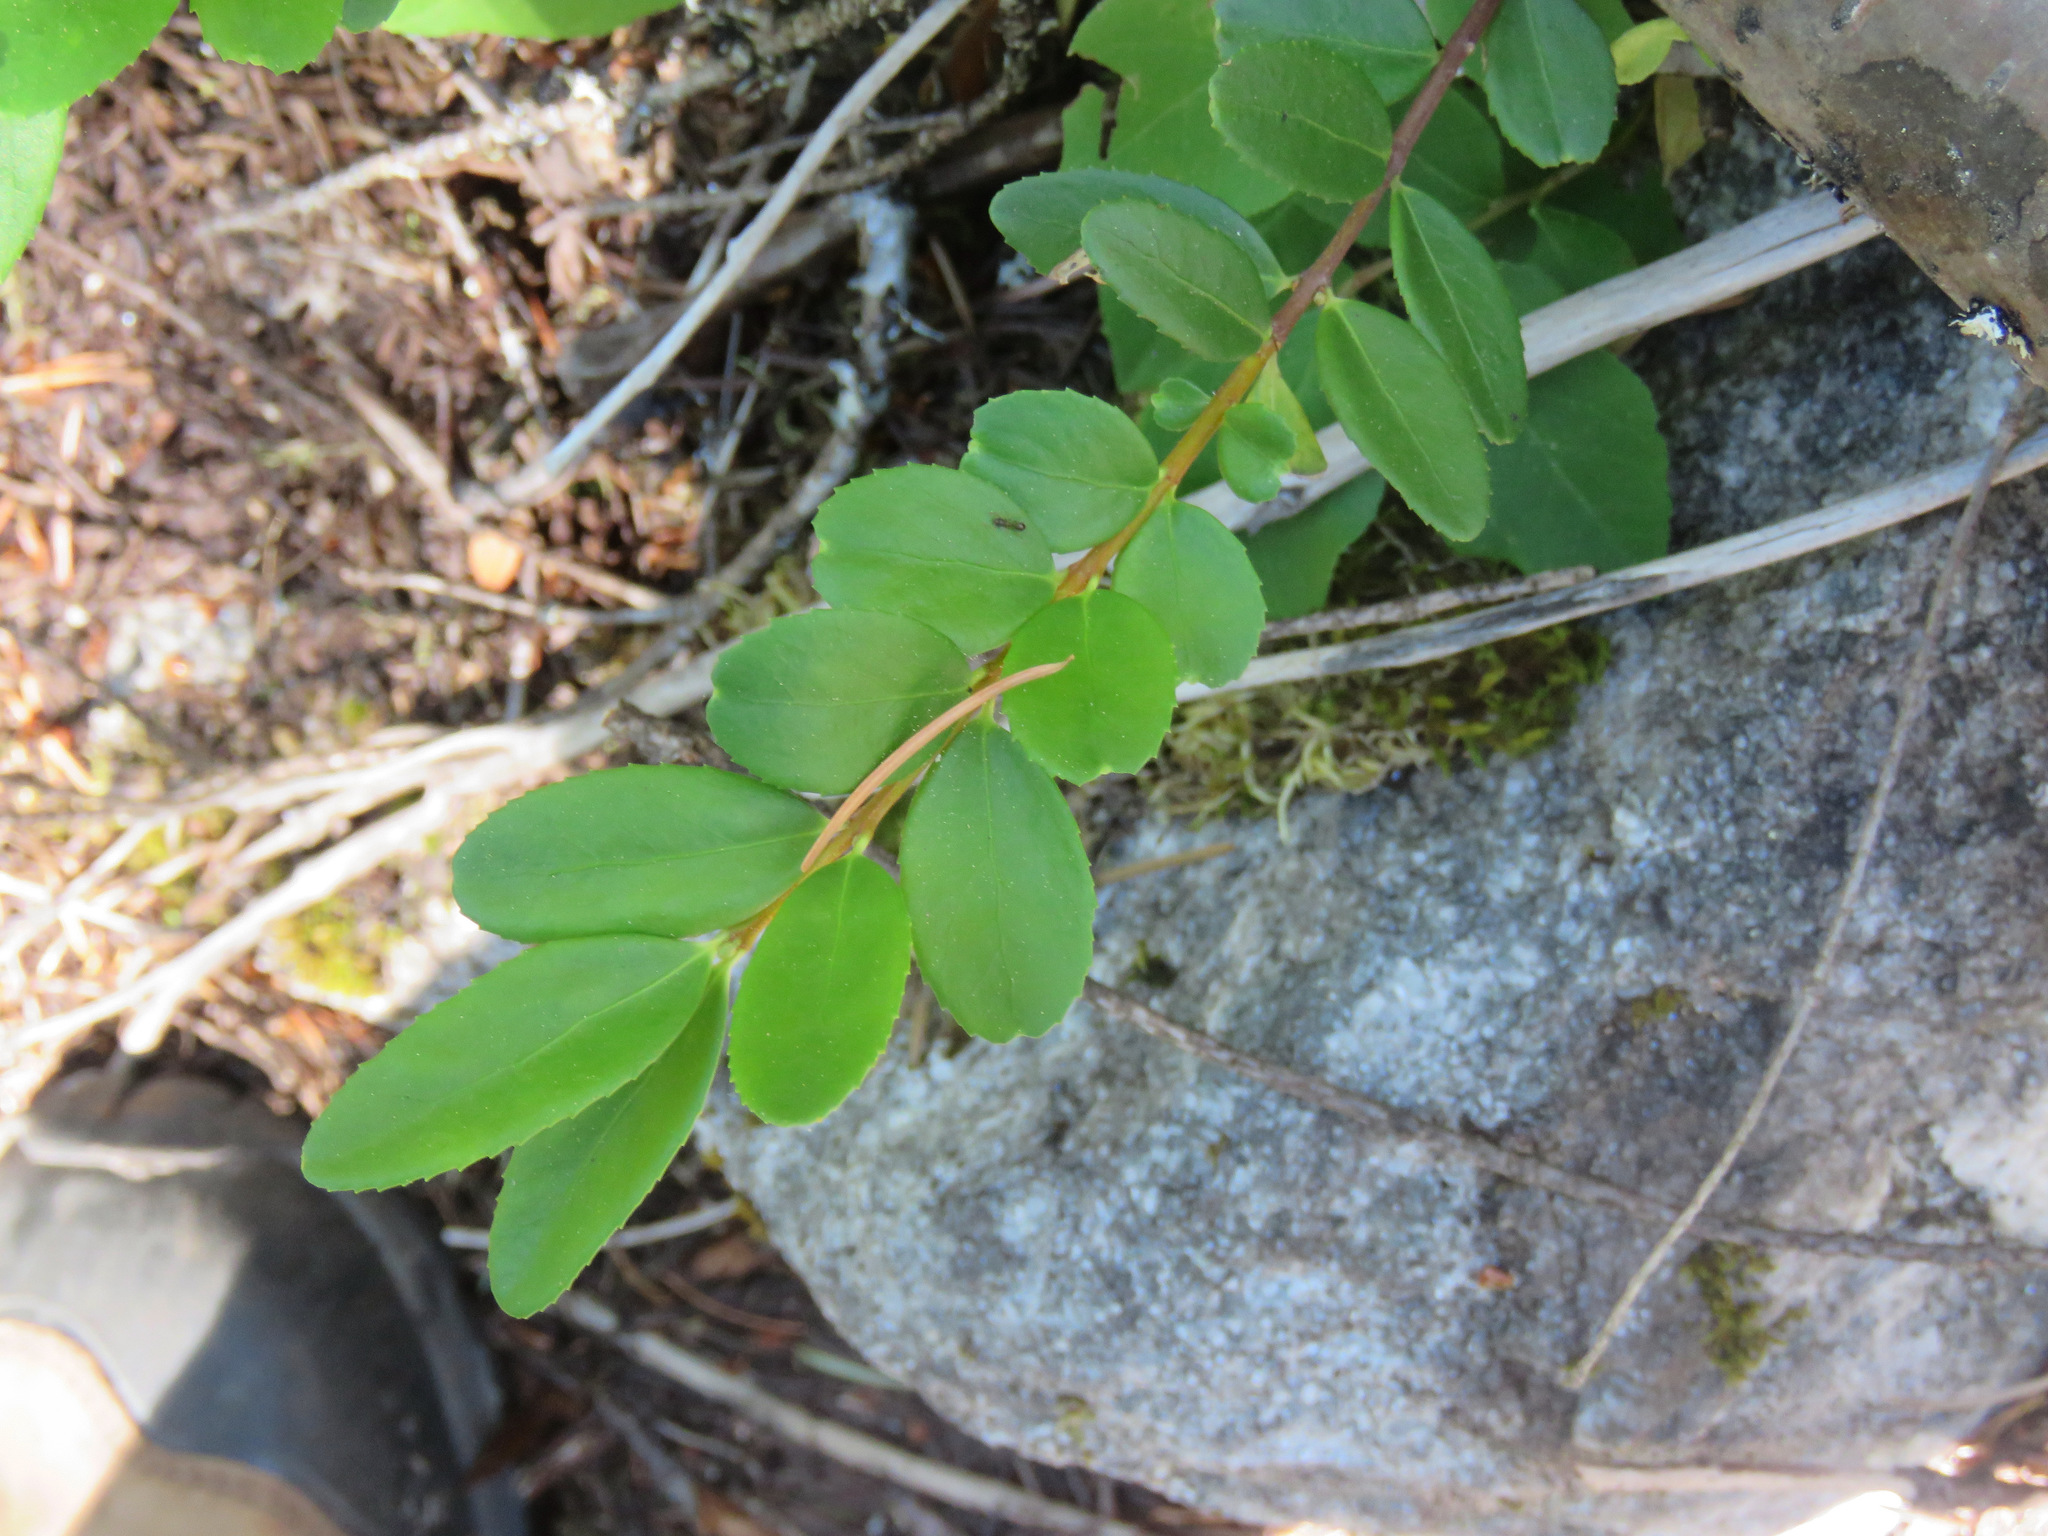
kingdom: Plantae
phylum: Tracheophyta
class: Magnoliopsida
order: Celastrales
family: Celastraceae
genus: Paxistima
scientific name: Paxistima myrsinites
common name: Mountain-lover
